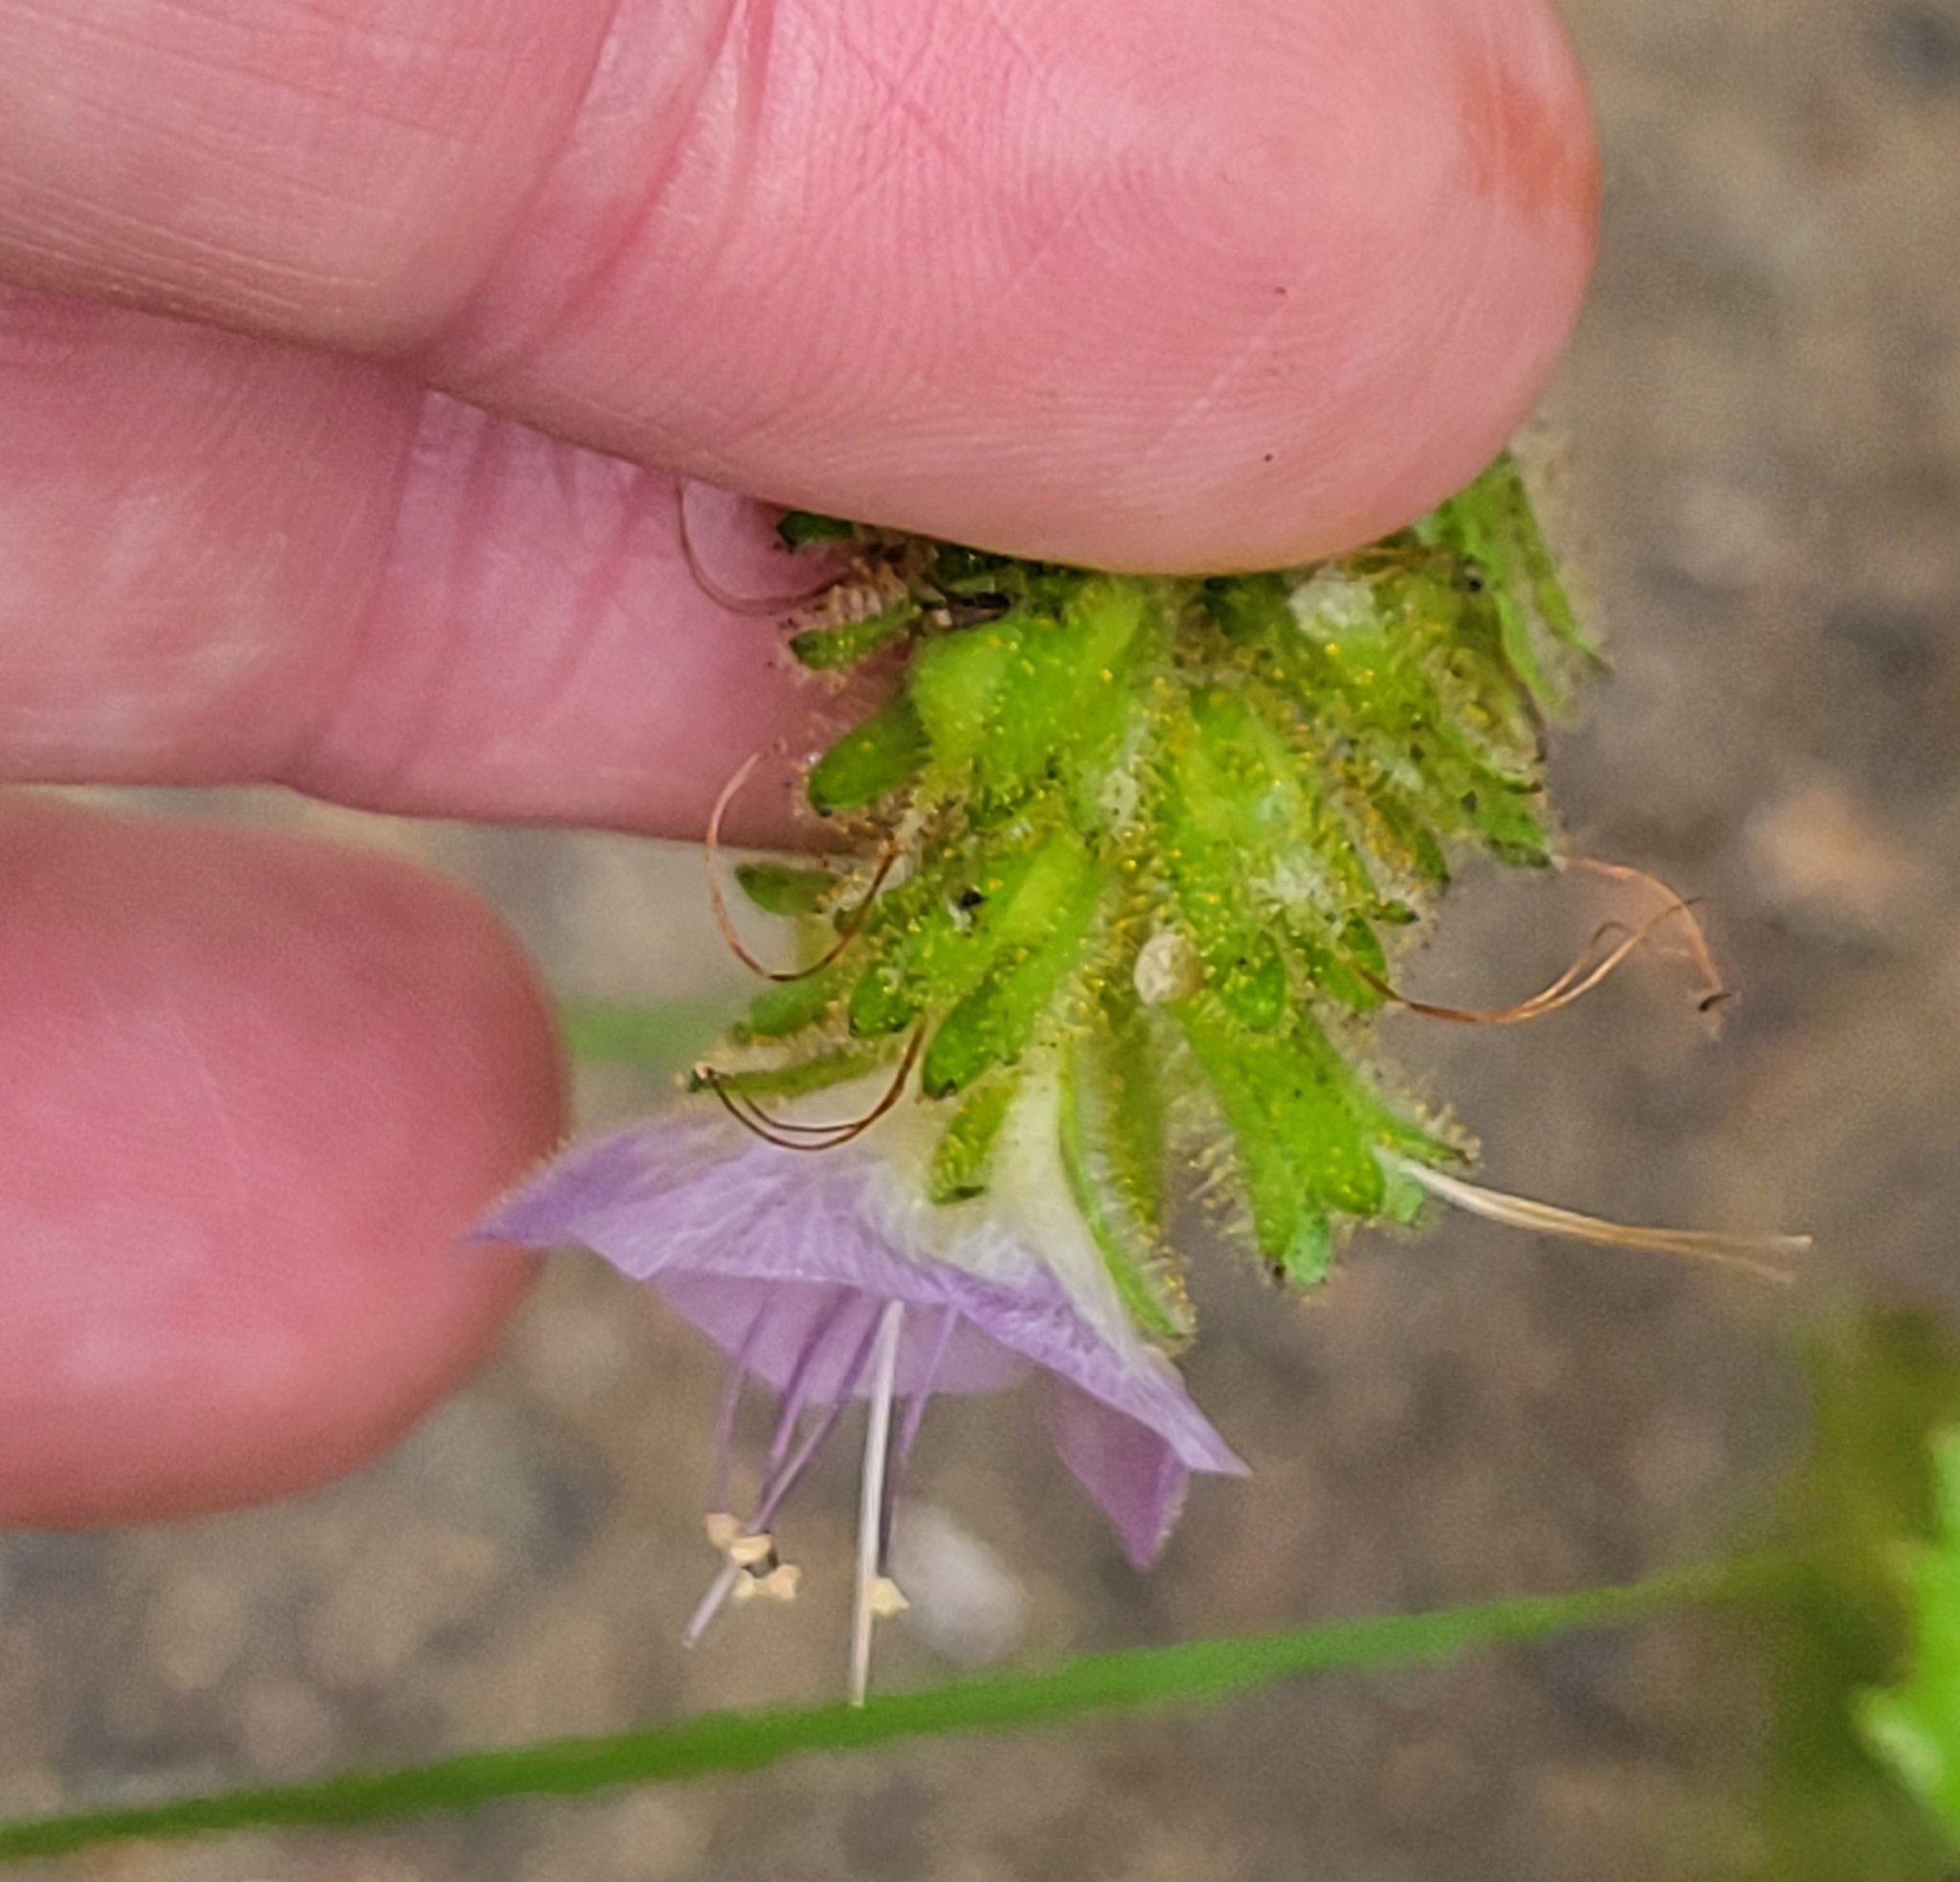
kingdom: Plantae
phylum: Tracheophyta
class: Magnoliopsida
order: Boraginales
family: Hydrophyllaceae
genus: Phacelia
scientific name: Phacelia grandiflora
